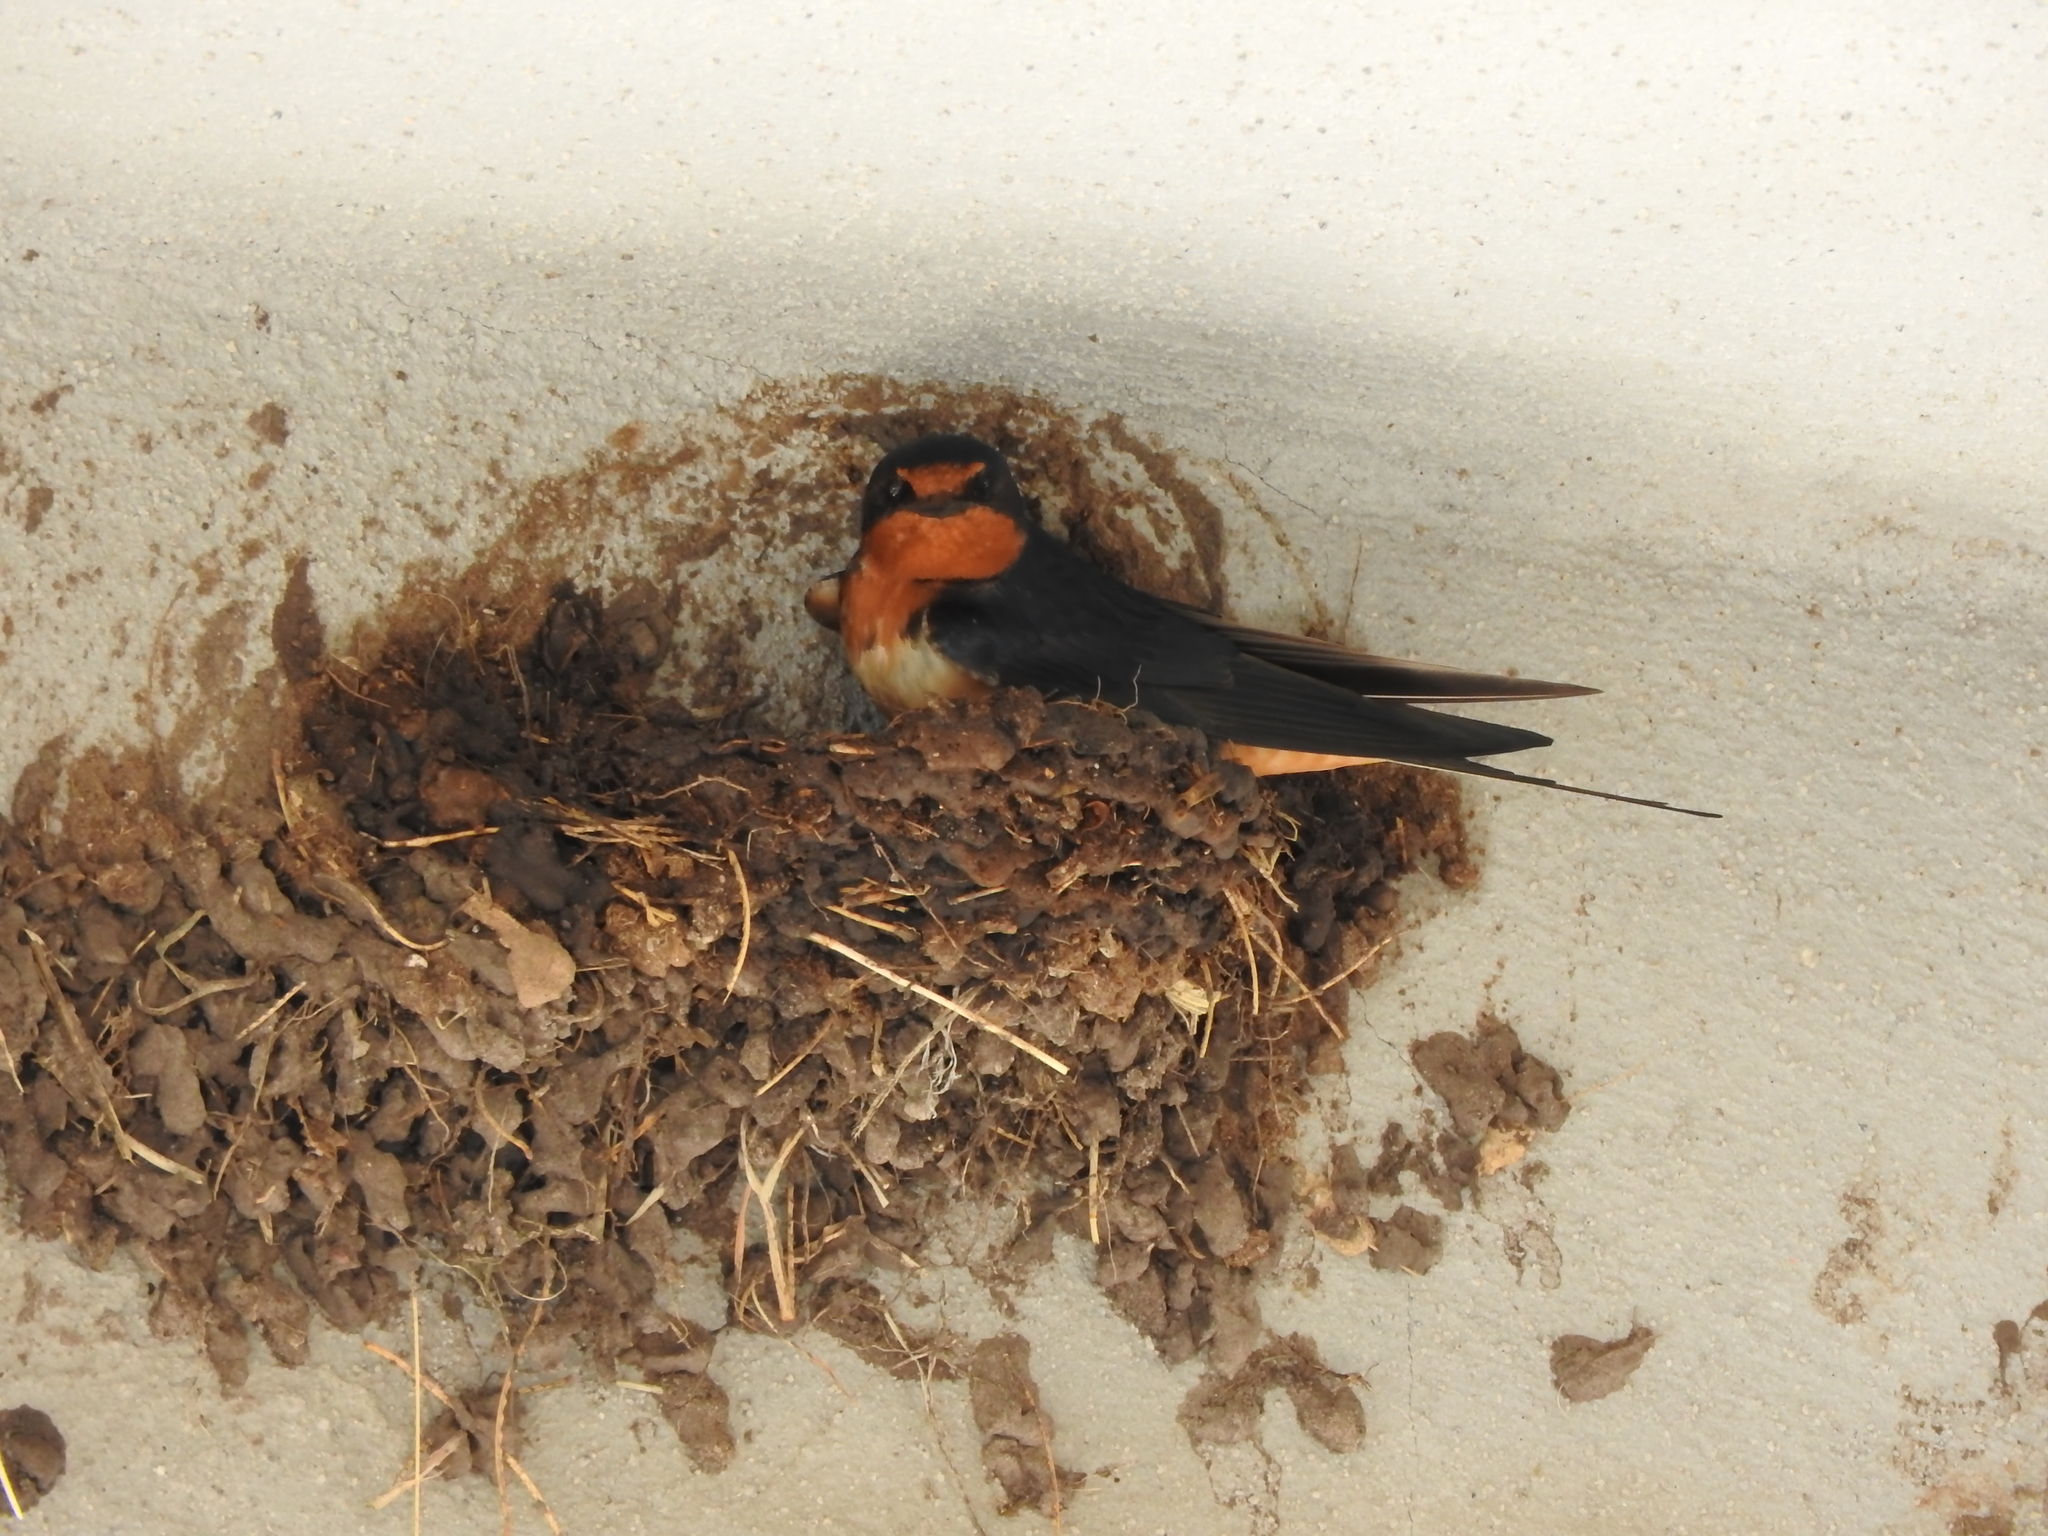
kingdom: Animalia
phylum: Chordata
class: Aves
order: Passeriformes
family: Hirundinidae
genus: Hirundo
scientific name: Hirundo rustica
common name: Barn swallow
